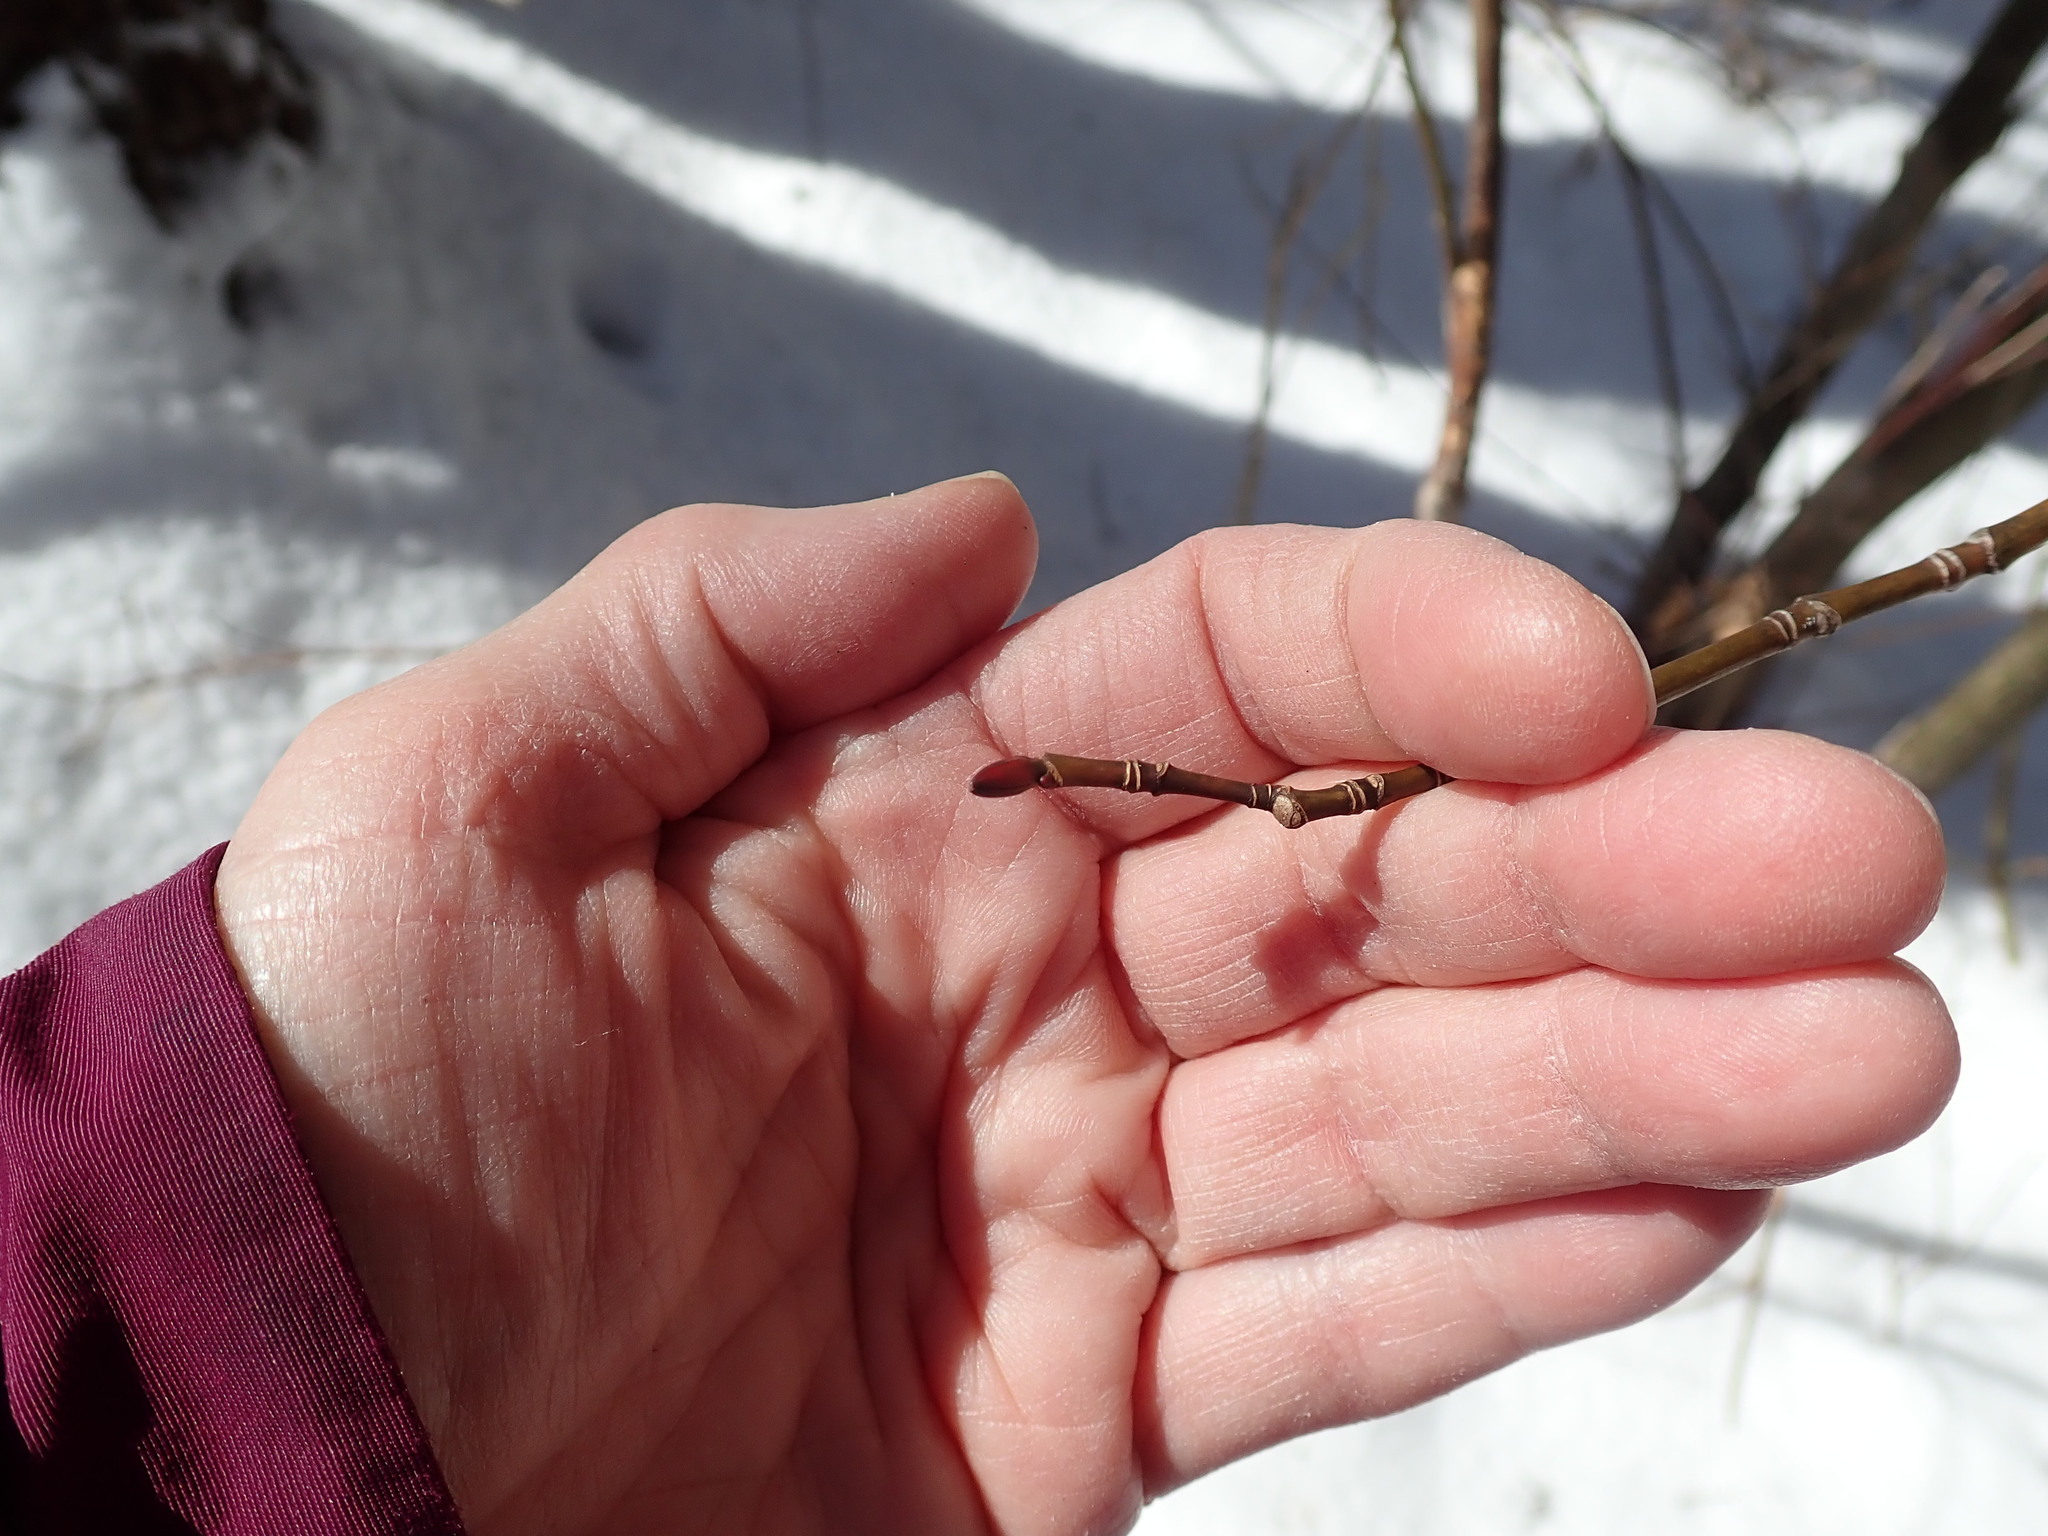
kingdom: Plantae
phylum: Tracheophyta
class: Magnoliopsida
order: Sapindales
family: Sapindaceae
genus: Acer
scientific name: Acer pensylvanicum
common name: Moosewood
